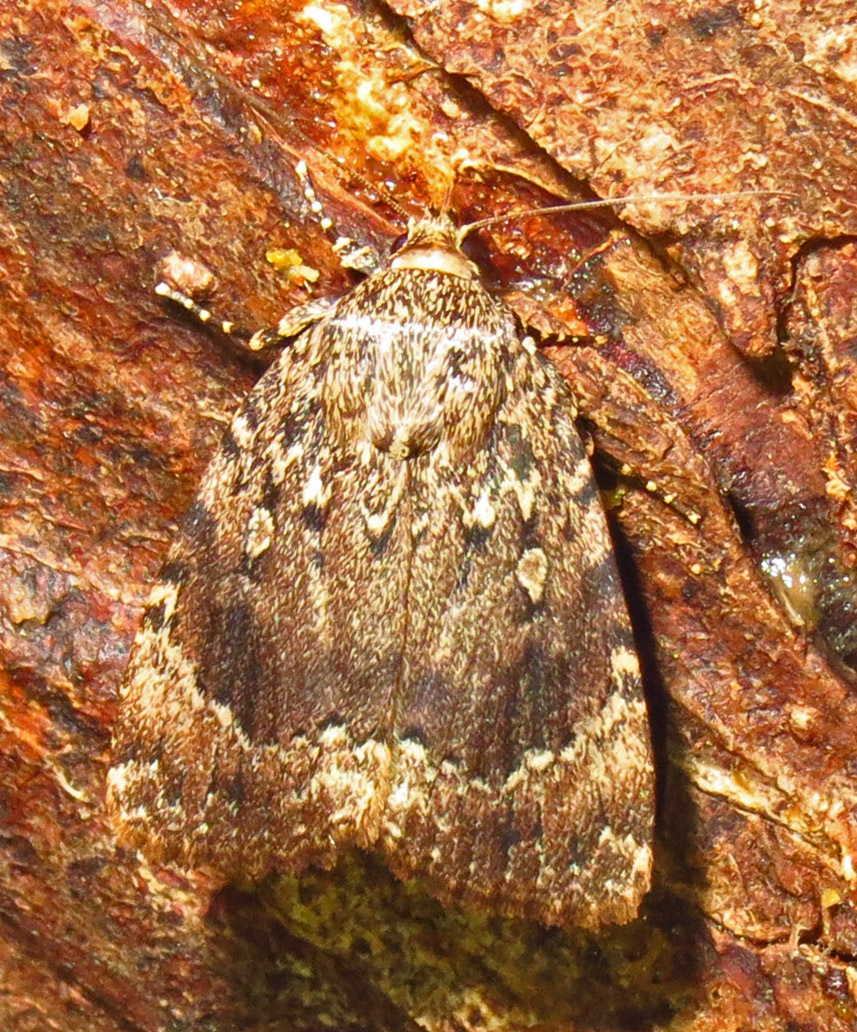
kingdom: Animalia
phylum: Arthropoda
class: Insecta
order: Lepidoptera
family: Noctuidae
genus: Amphipyra
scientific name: Amphipyra pyramidoides
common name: American copper underwing
